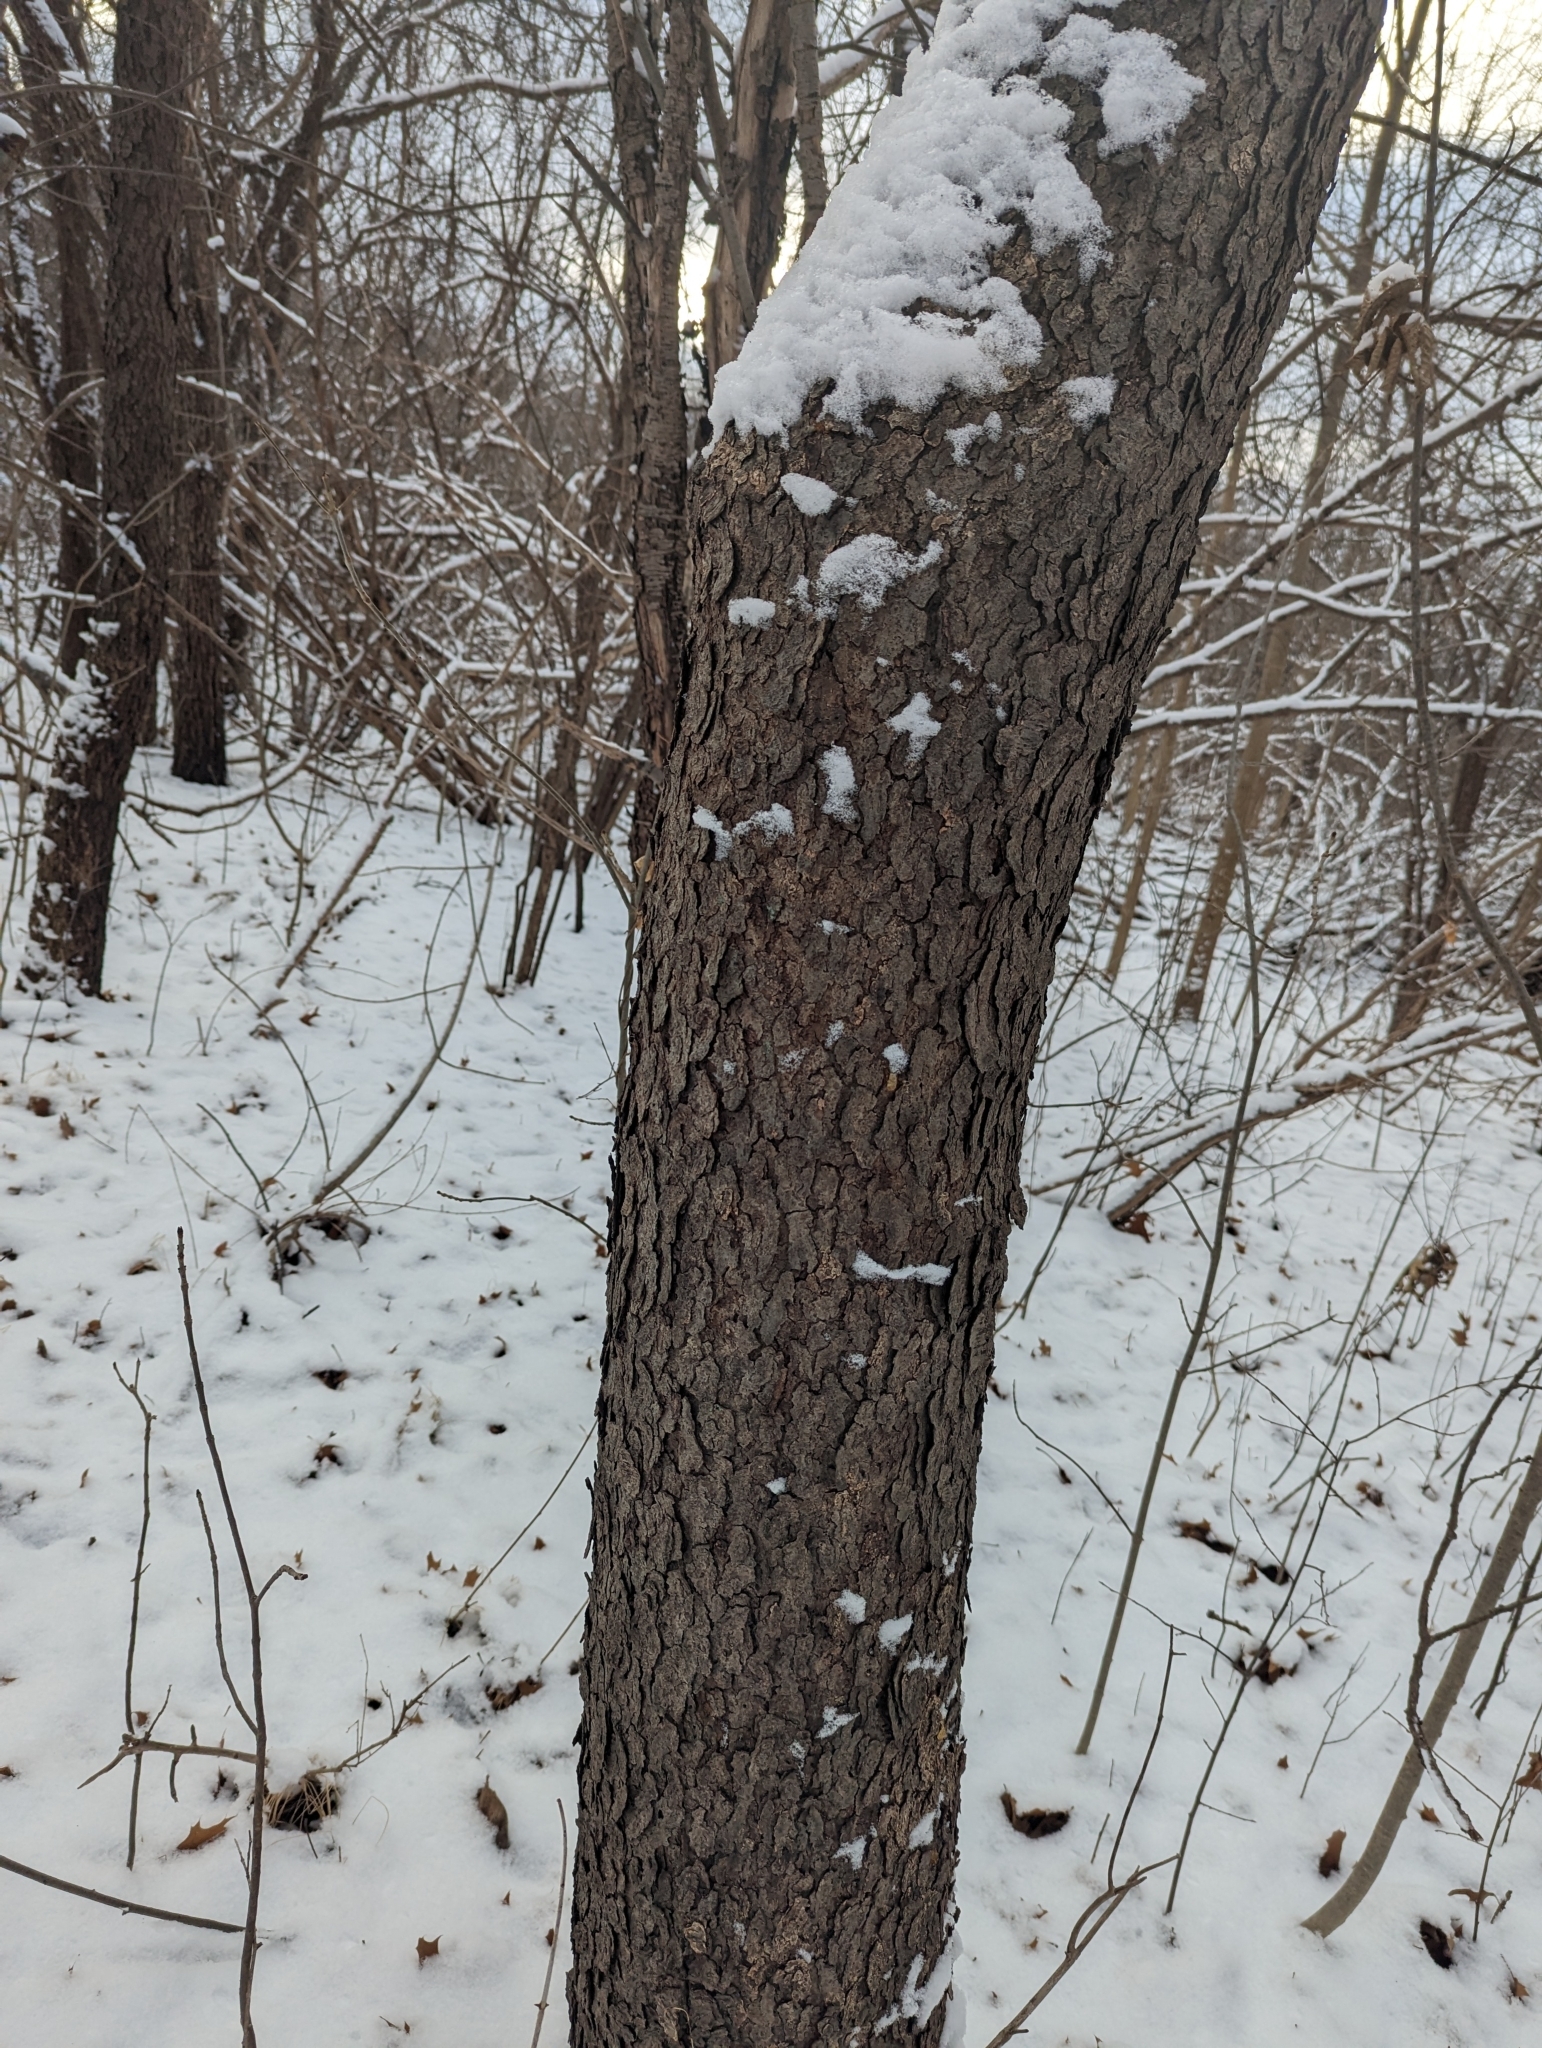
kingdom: Plantae
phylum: Tracheophyta
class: Magnoliopsida
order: Rosales
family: Rosaceae
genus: Prunus
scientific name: Prunus serotina
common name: Black cherry
